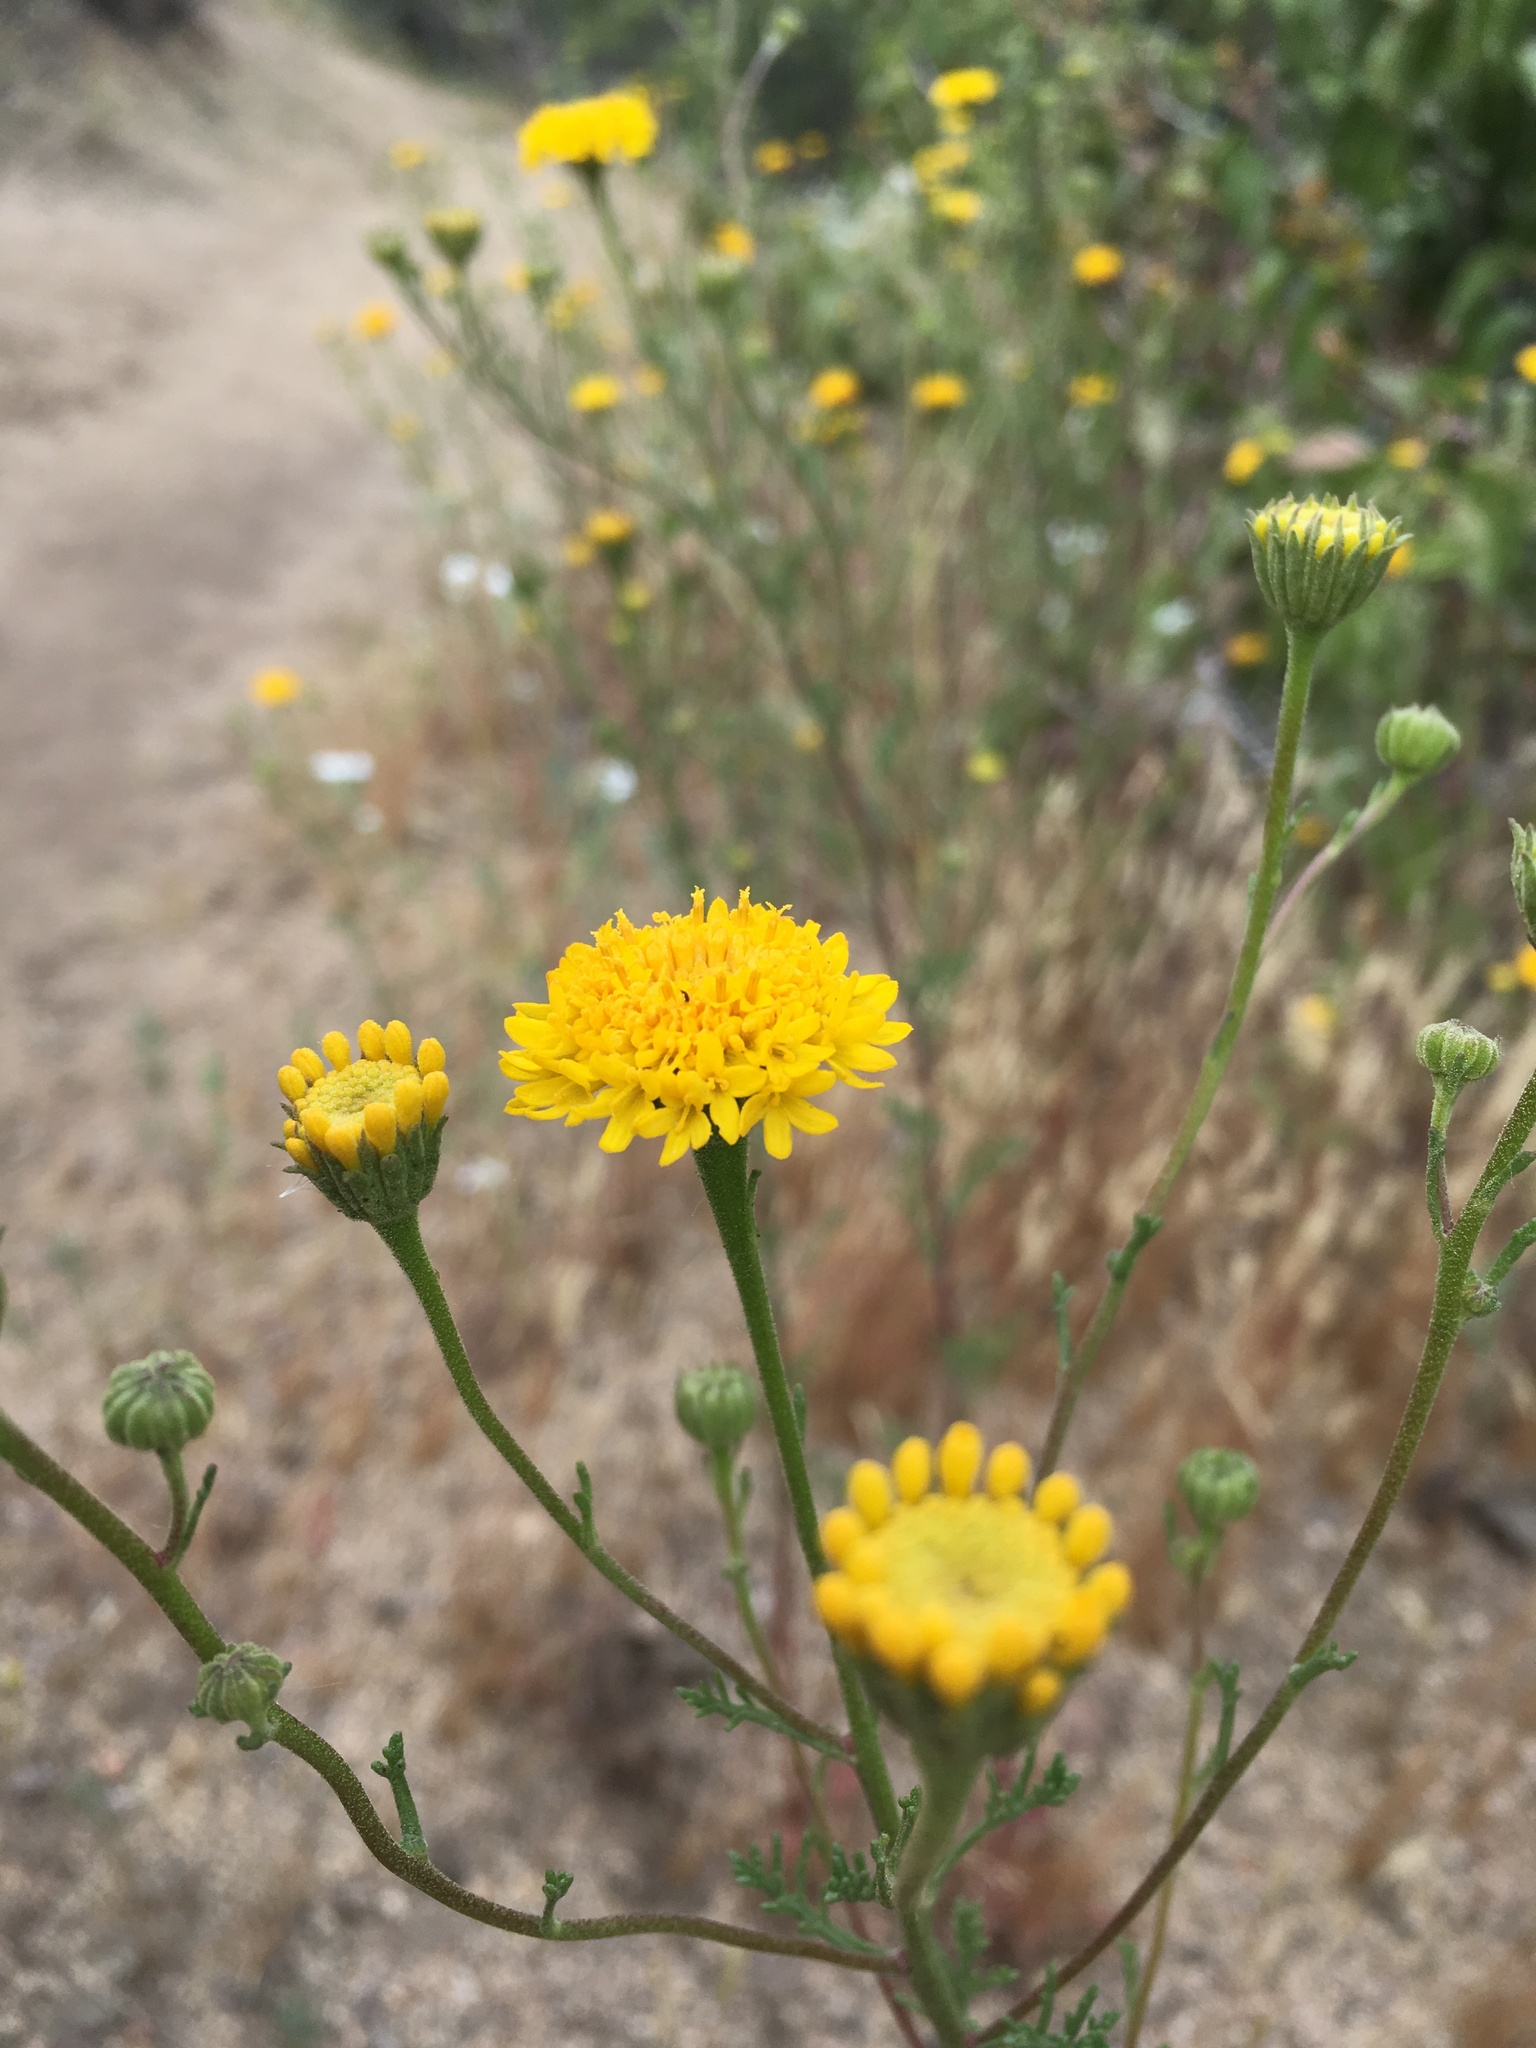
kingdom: Plantae
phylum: Tracheophyta
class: Magnoliopsida
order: Asterales
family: Asteraceae
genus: Chaenactis
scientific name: Chaenactis glabriuscula
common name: Yellow pincushion
